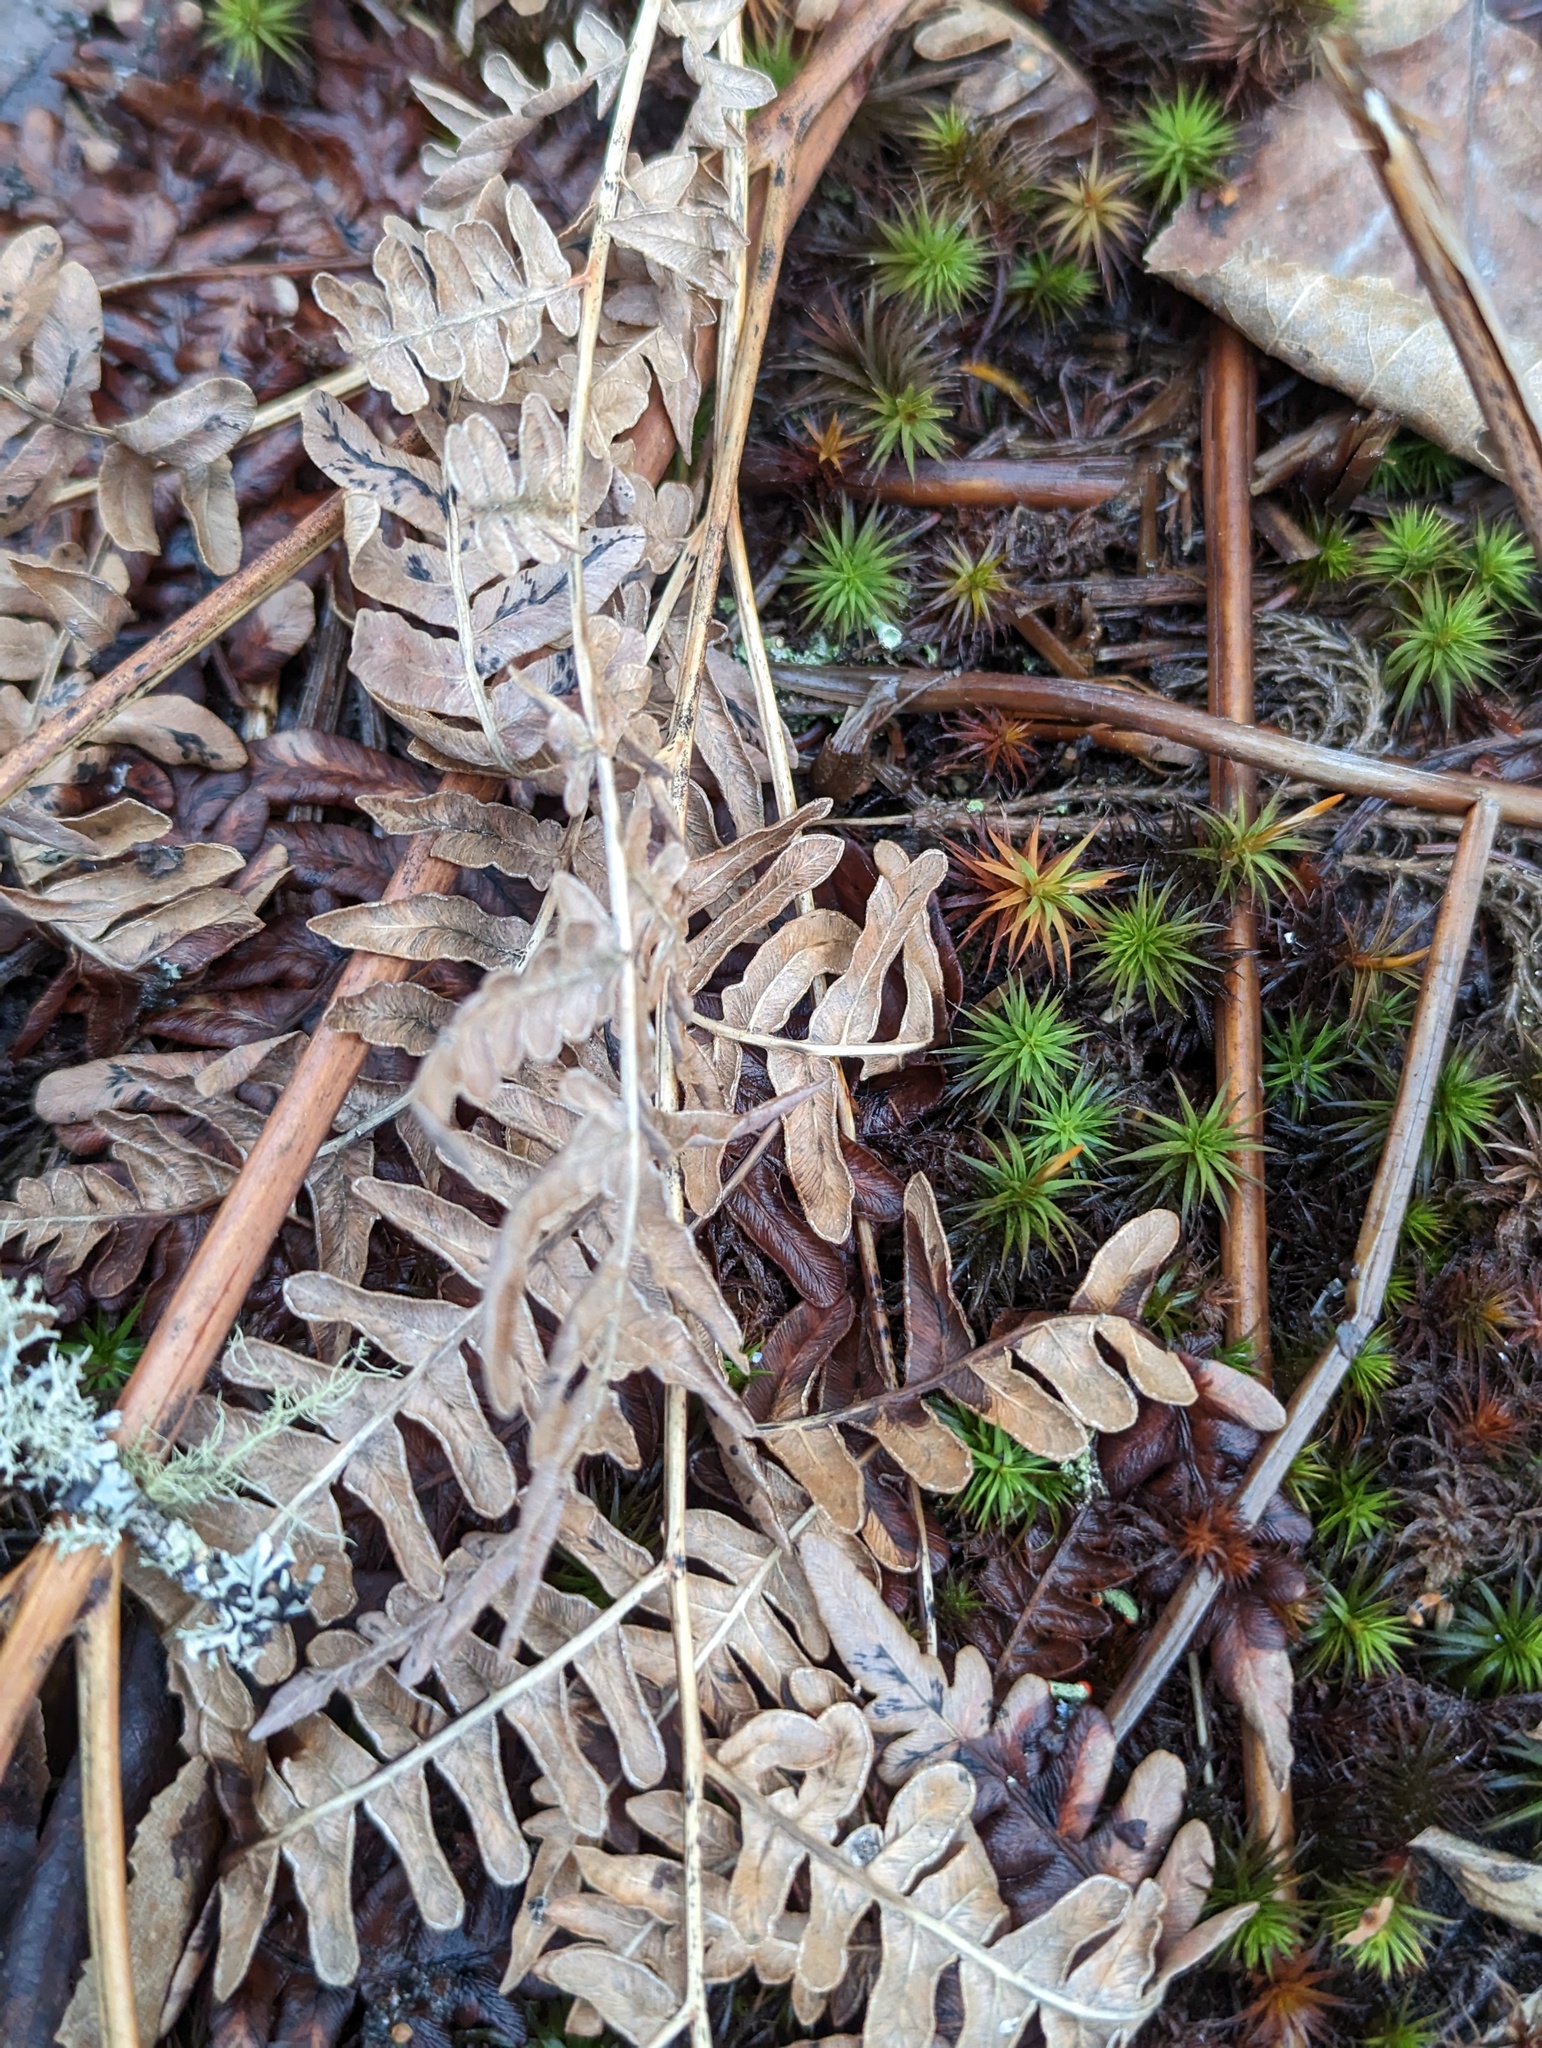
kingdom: Plantae
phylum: Tracheophyta
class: Polypodiopsida
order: Polypodiales
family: Dennstaedtiaceae
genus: Pteridium
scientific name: Pteridium aquilinum
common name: Bracken
